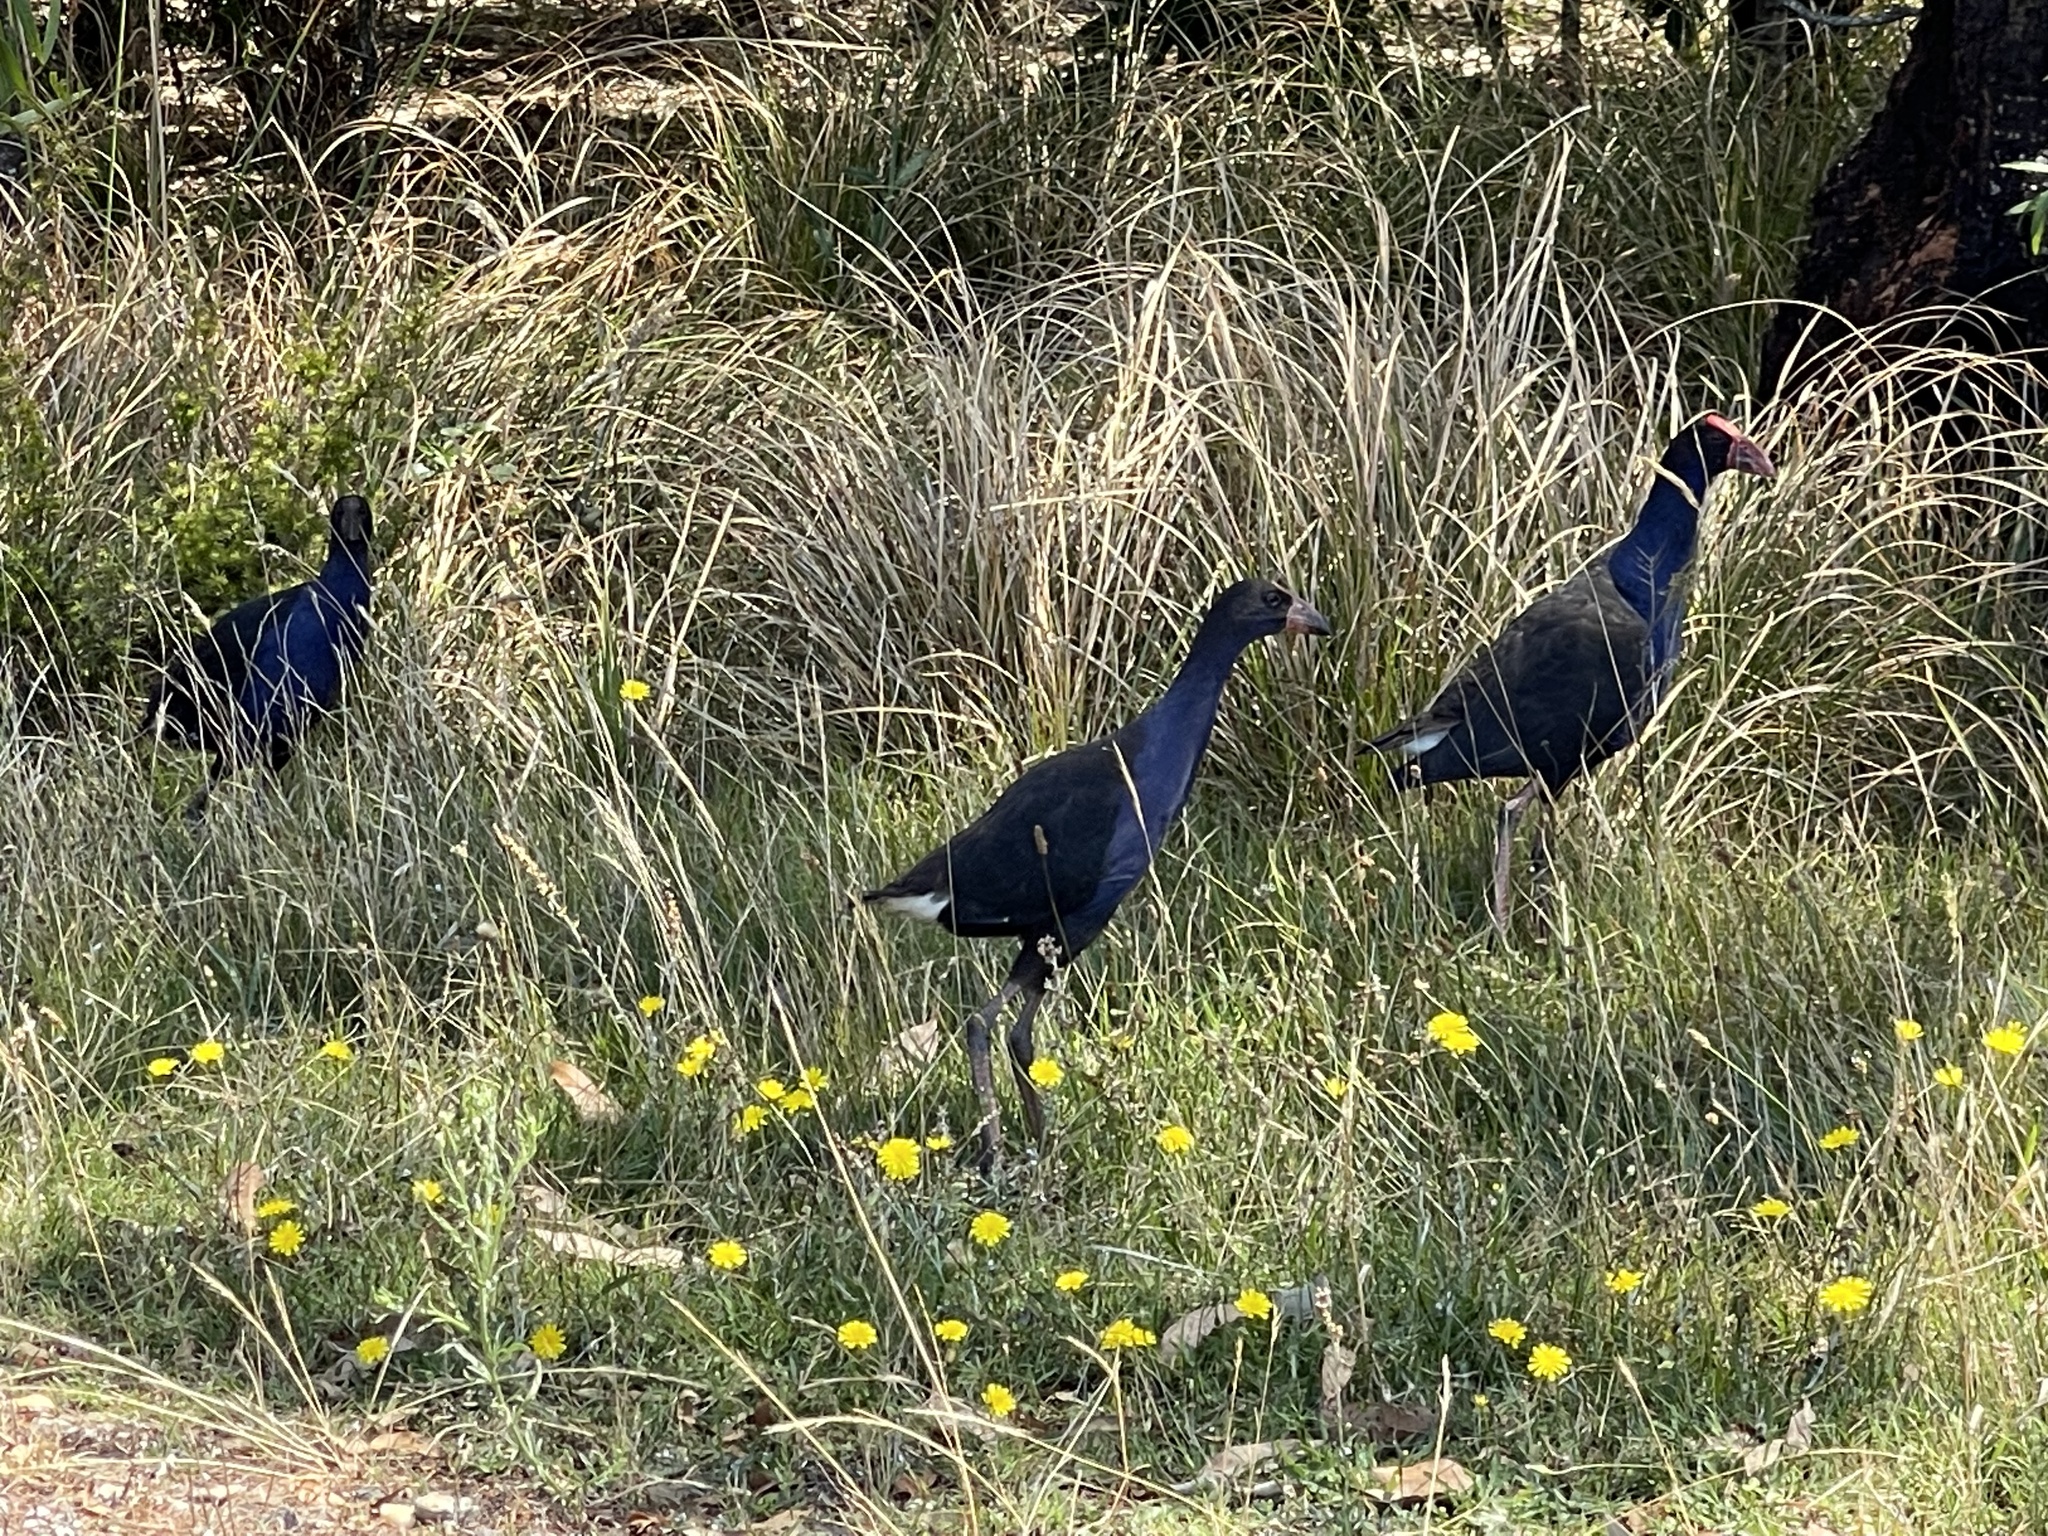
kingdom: Animalia
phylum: Chordata
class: Aves
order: Gruiformes
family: Rallidae
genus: Porphyrio
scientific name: Porphyrio melanotus
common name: Australasian swamphen
